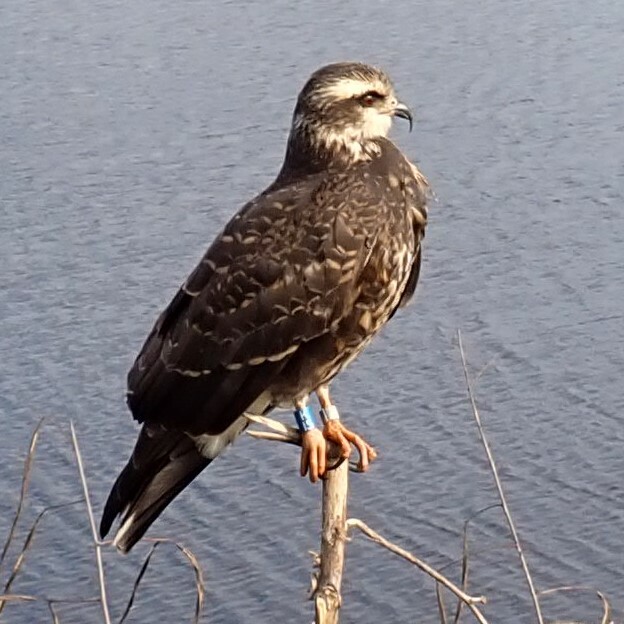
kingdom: Animalia
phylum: Chordata
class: Aves
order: Accipitriformes
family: Accipitridae
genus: Rostrhamus
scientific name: Rostrhamus sociabilis
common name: Snail kite
